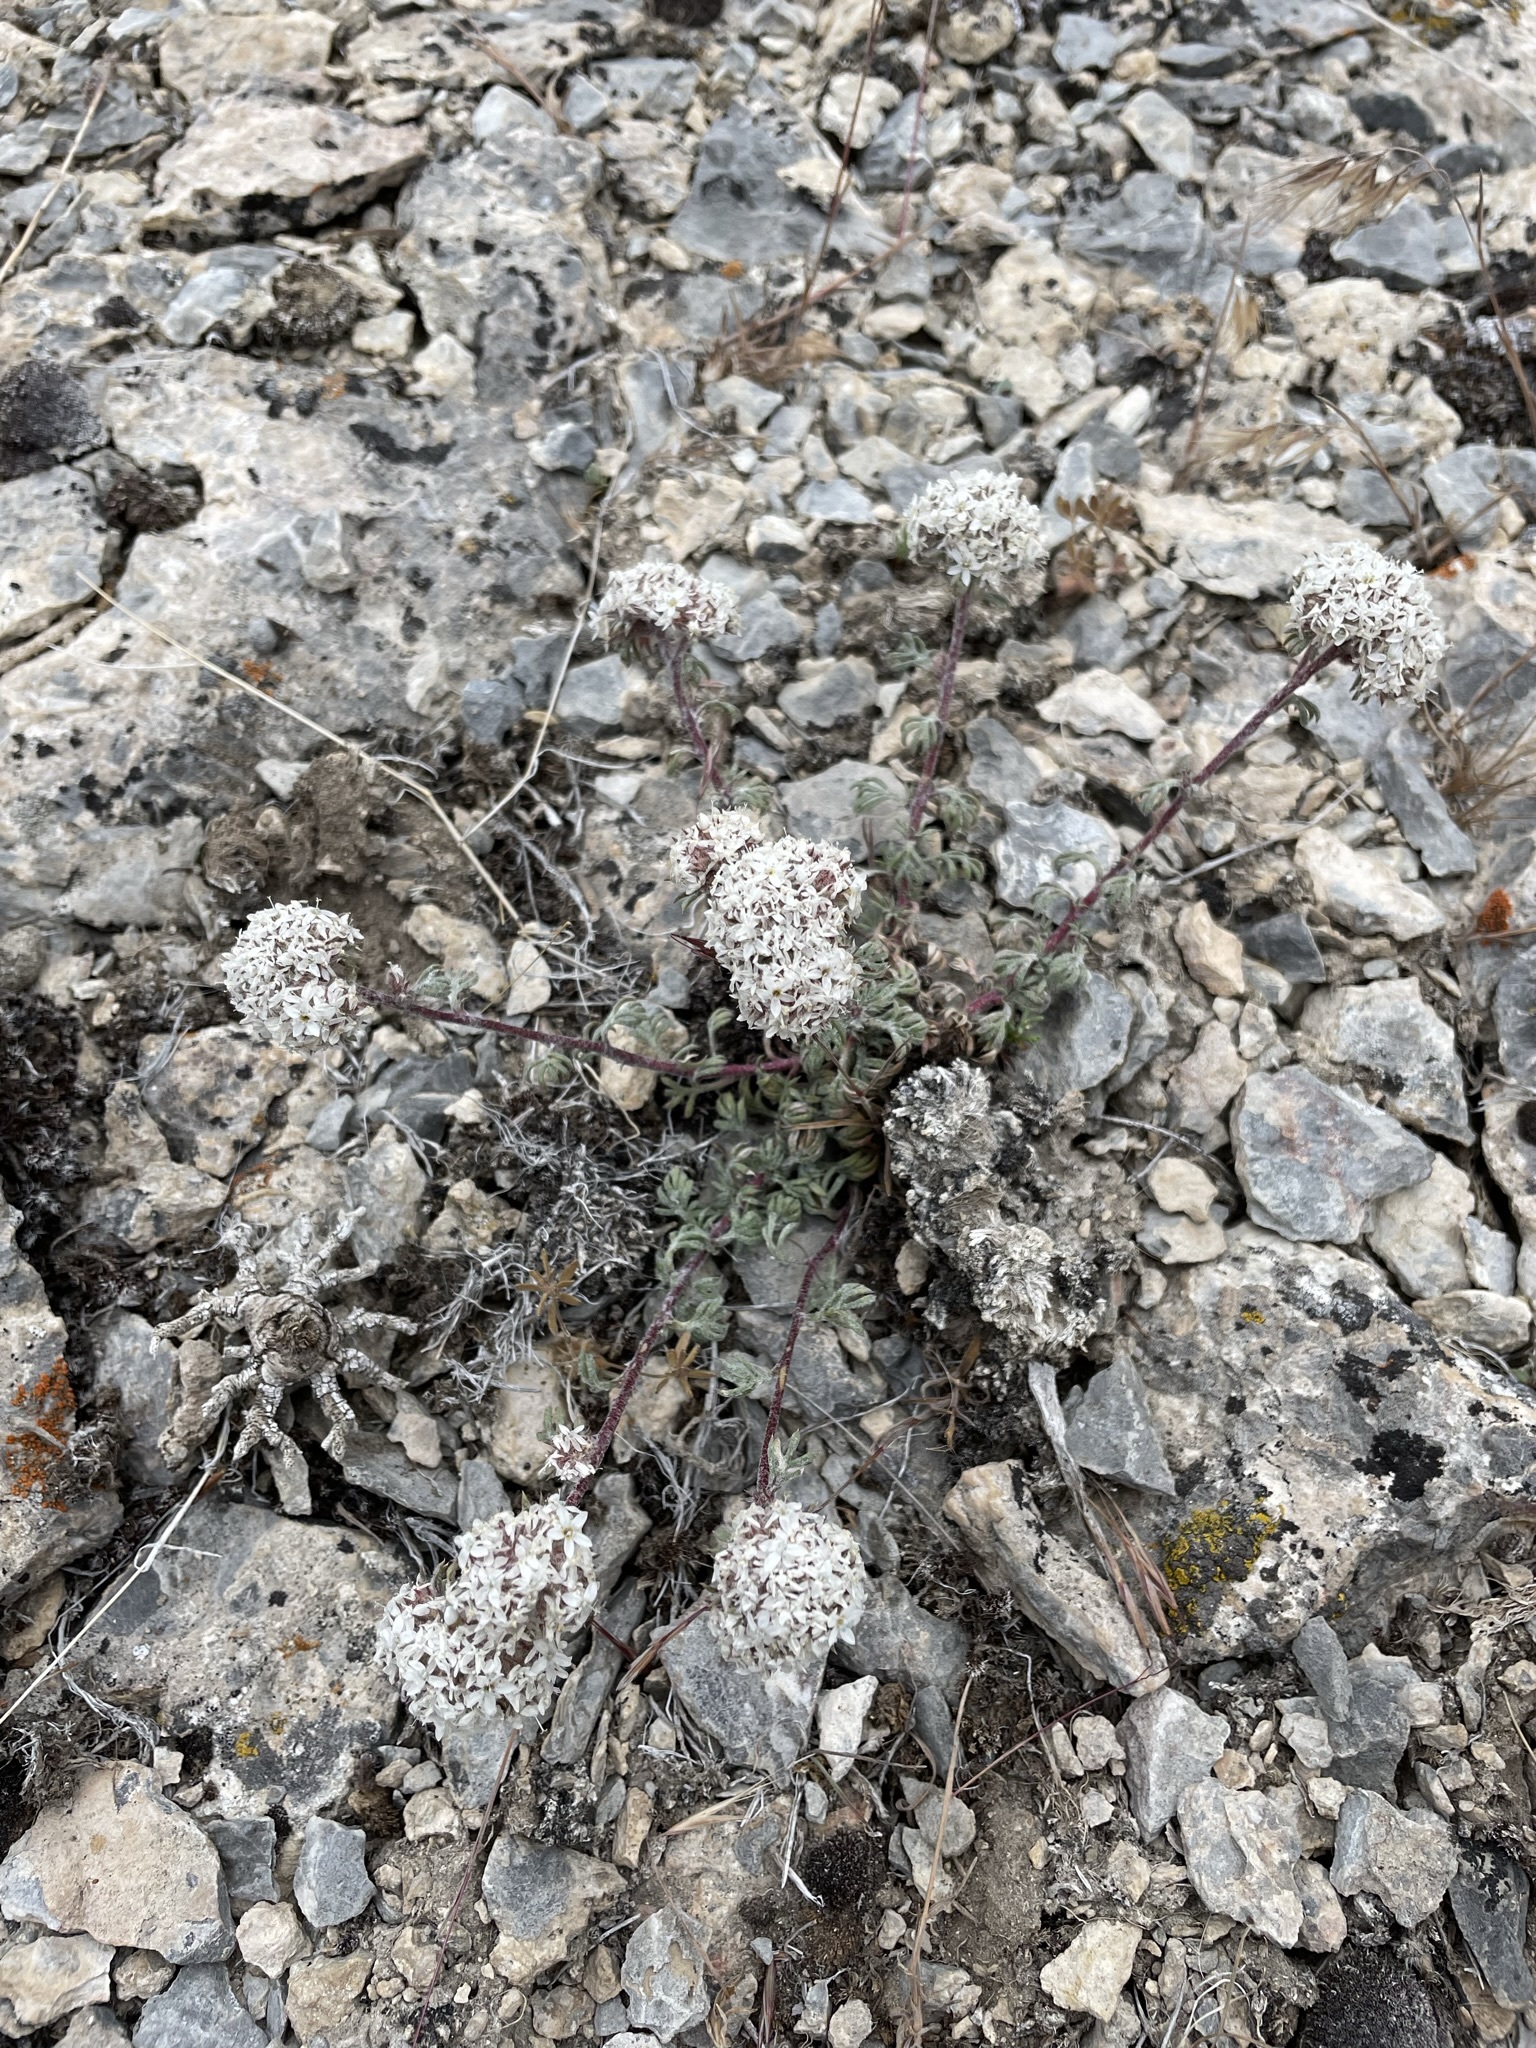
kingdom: Plantae
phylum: Tracheophyta
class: Magnoliopsida
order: Ericales
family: Polemoniaceae
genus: Ipomopsis
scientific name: Ipomopsis congesta
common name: Ball-head gilia
